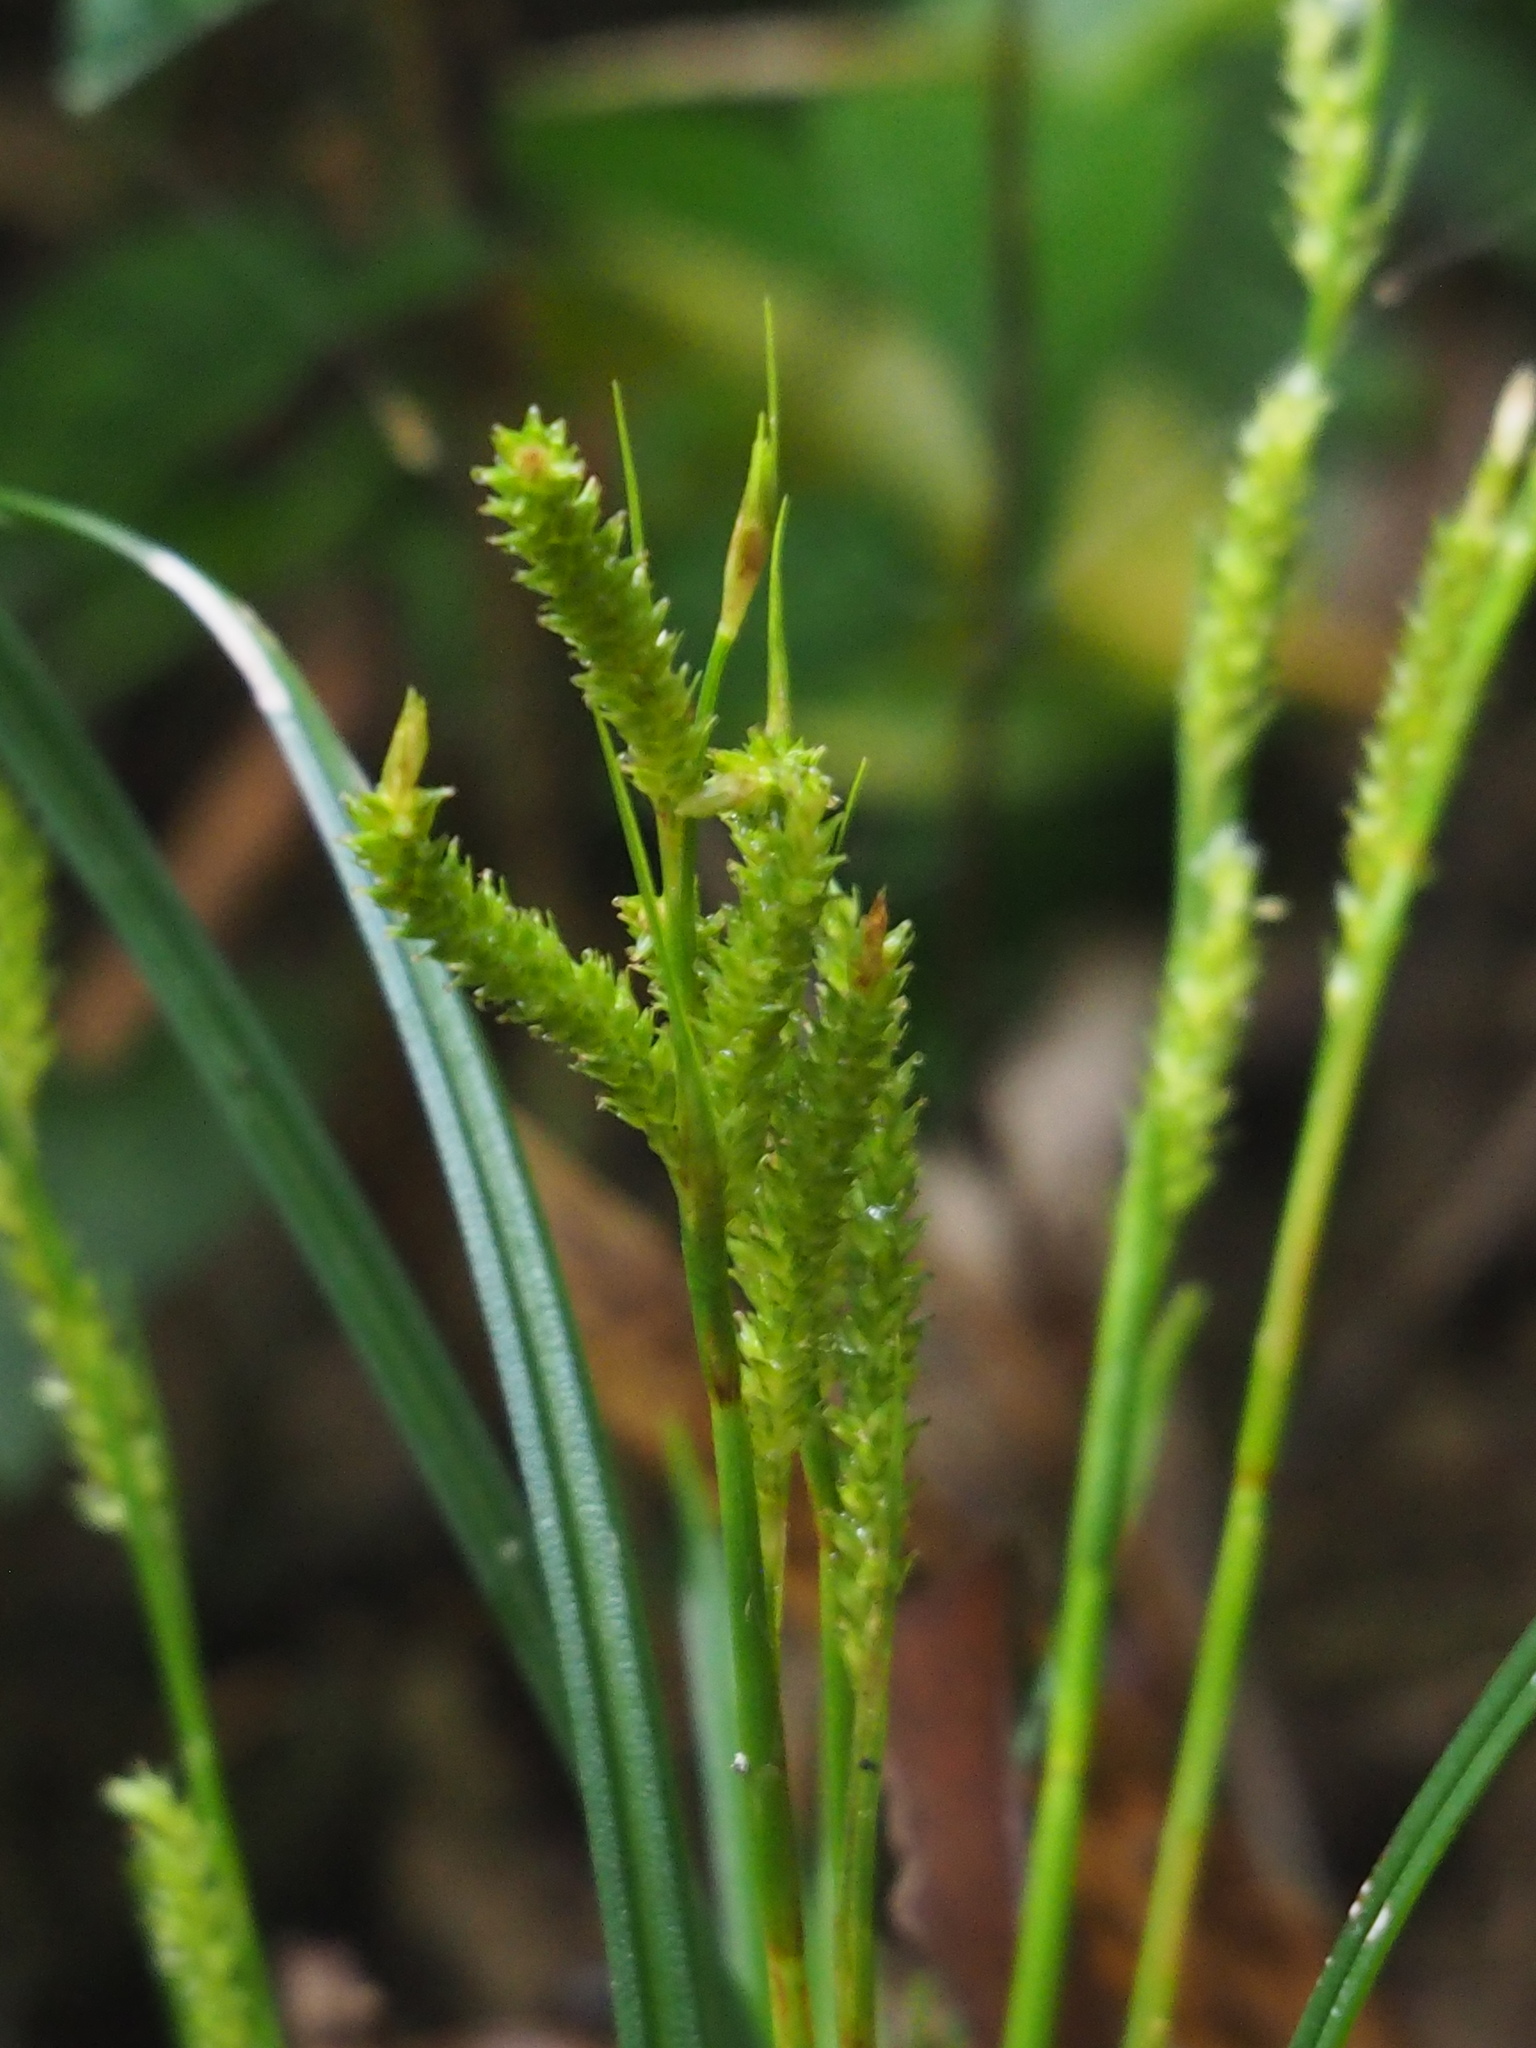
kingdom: Plantae
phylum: Tracheophyta
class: Liliopsida
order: Poales
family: Cyperaceae
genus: Carex
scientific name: Carex sociata
